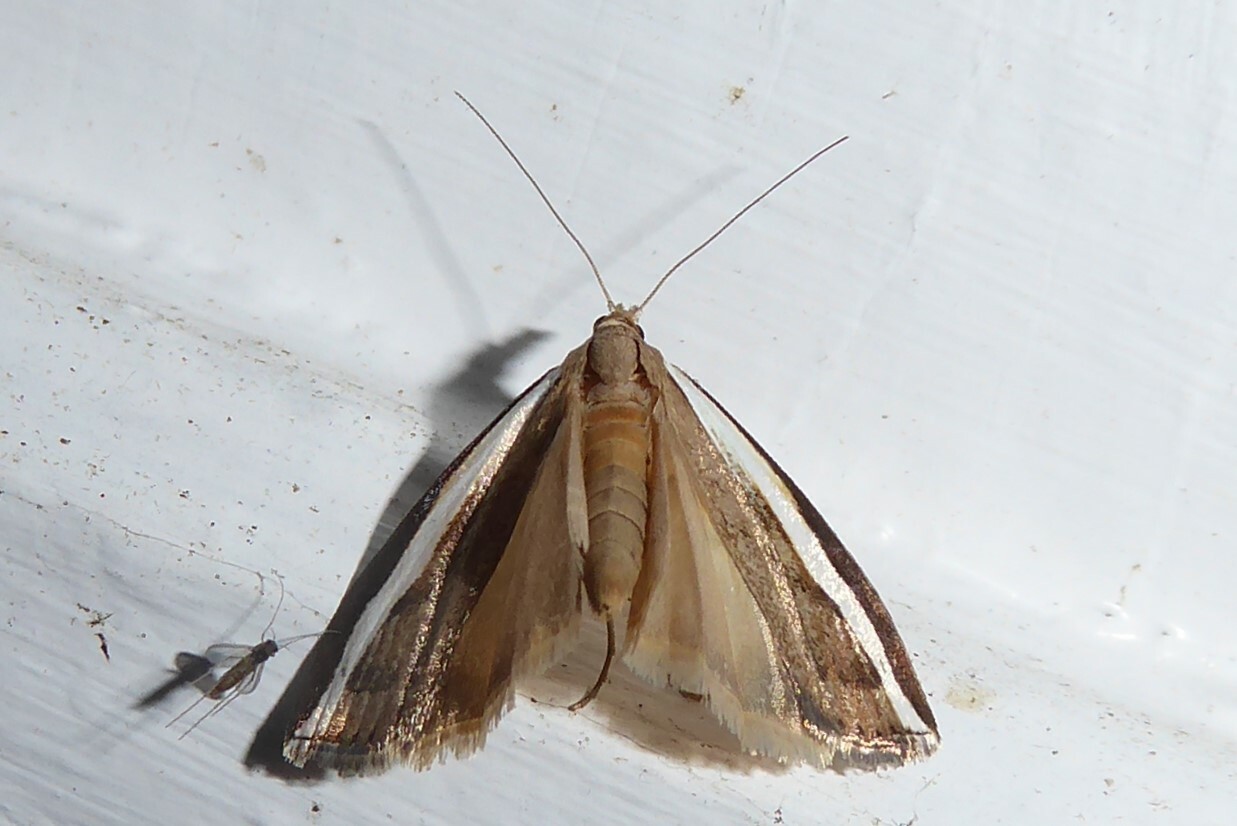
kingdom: Animalia
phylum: Arthropoda
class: Insecta
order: Lepidoptera
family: Crambidae
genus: Orocrambus
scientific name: Orocrambus flexuosellus
